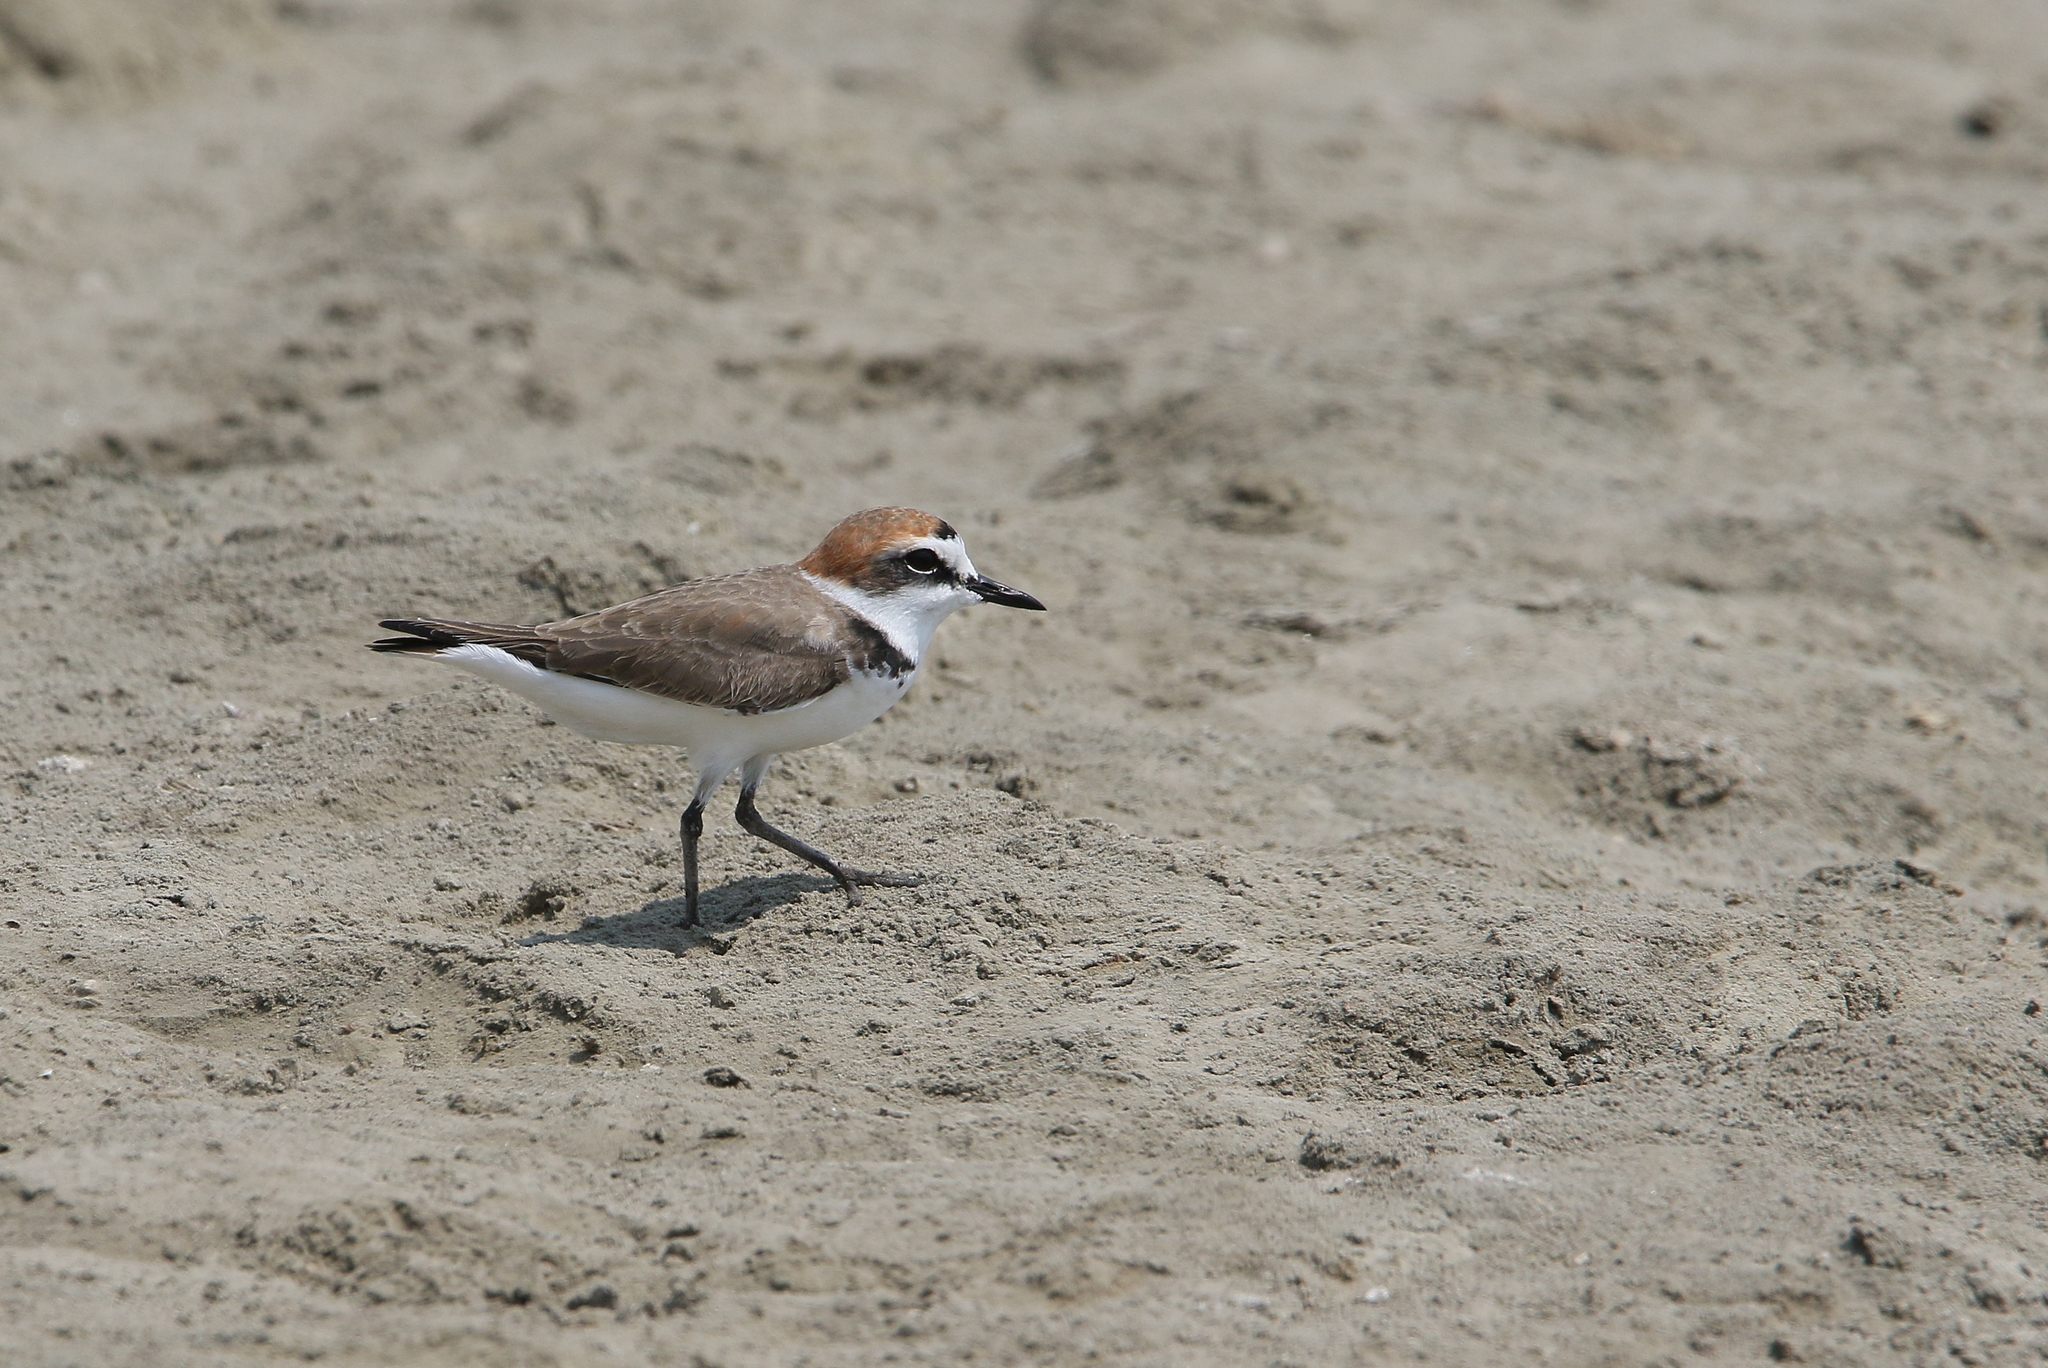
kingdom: Animalia
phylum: Chordata
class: Aves
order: Charadriiformes
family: Charadriidae
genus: Charadrius
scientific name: Charadrius alexandrinus
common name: Kentish plover
